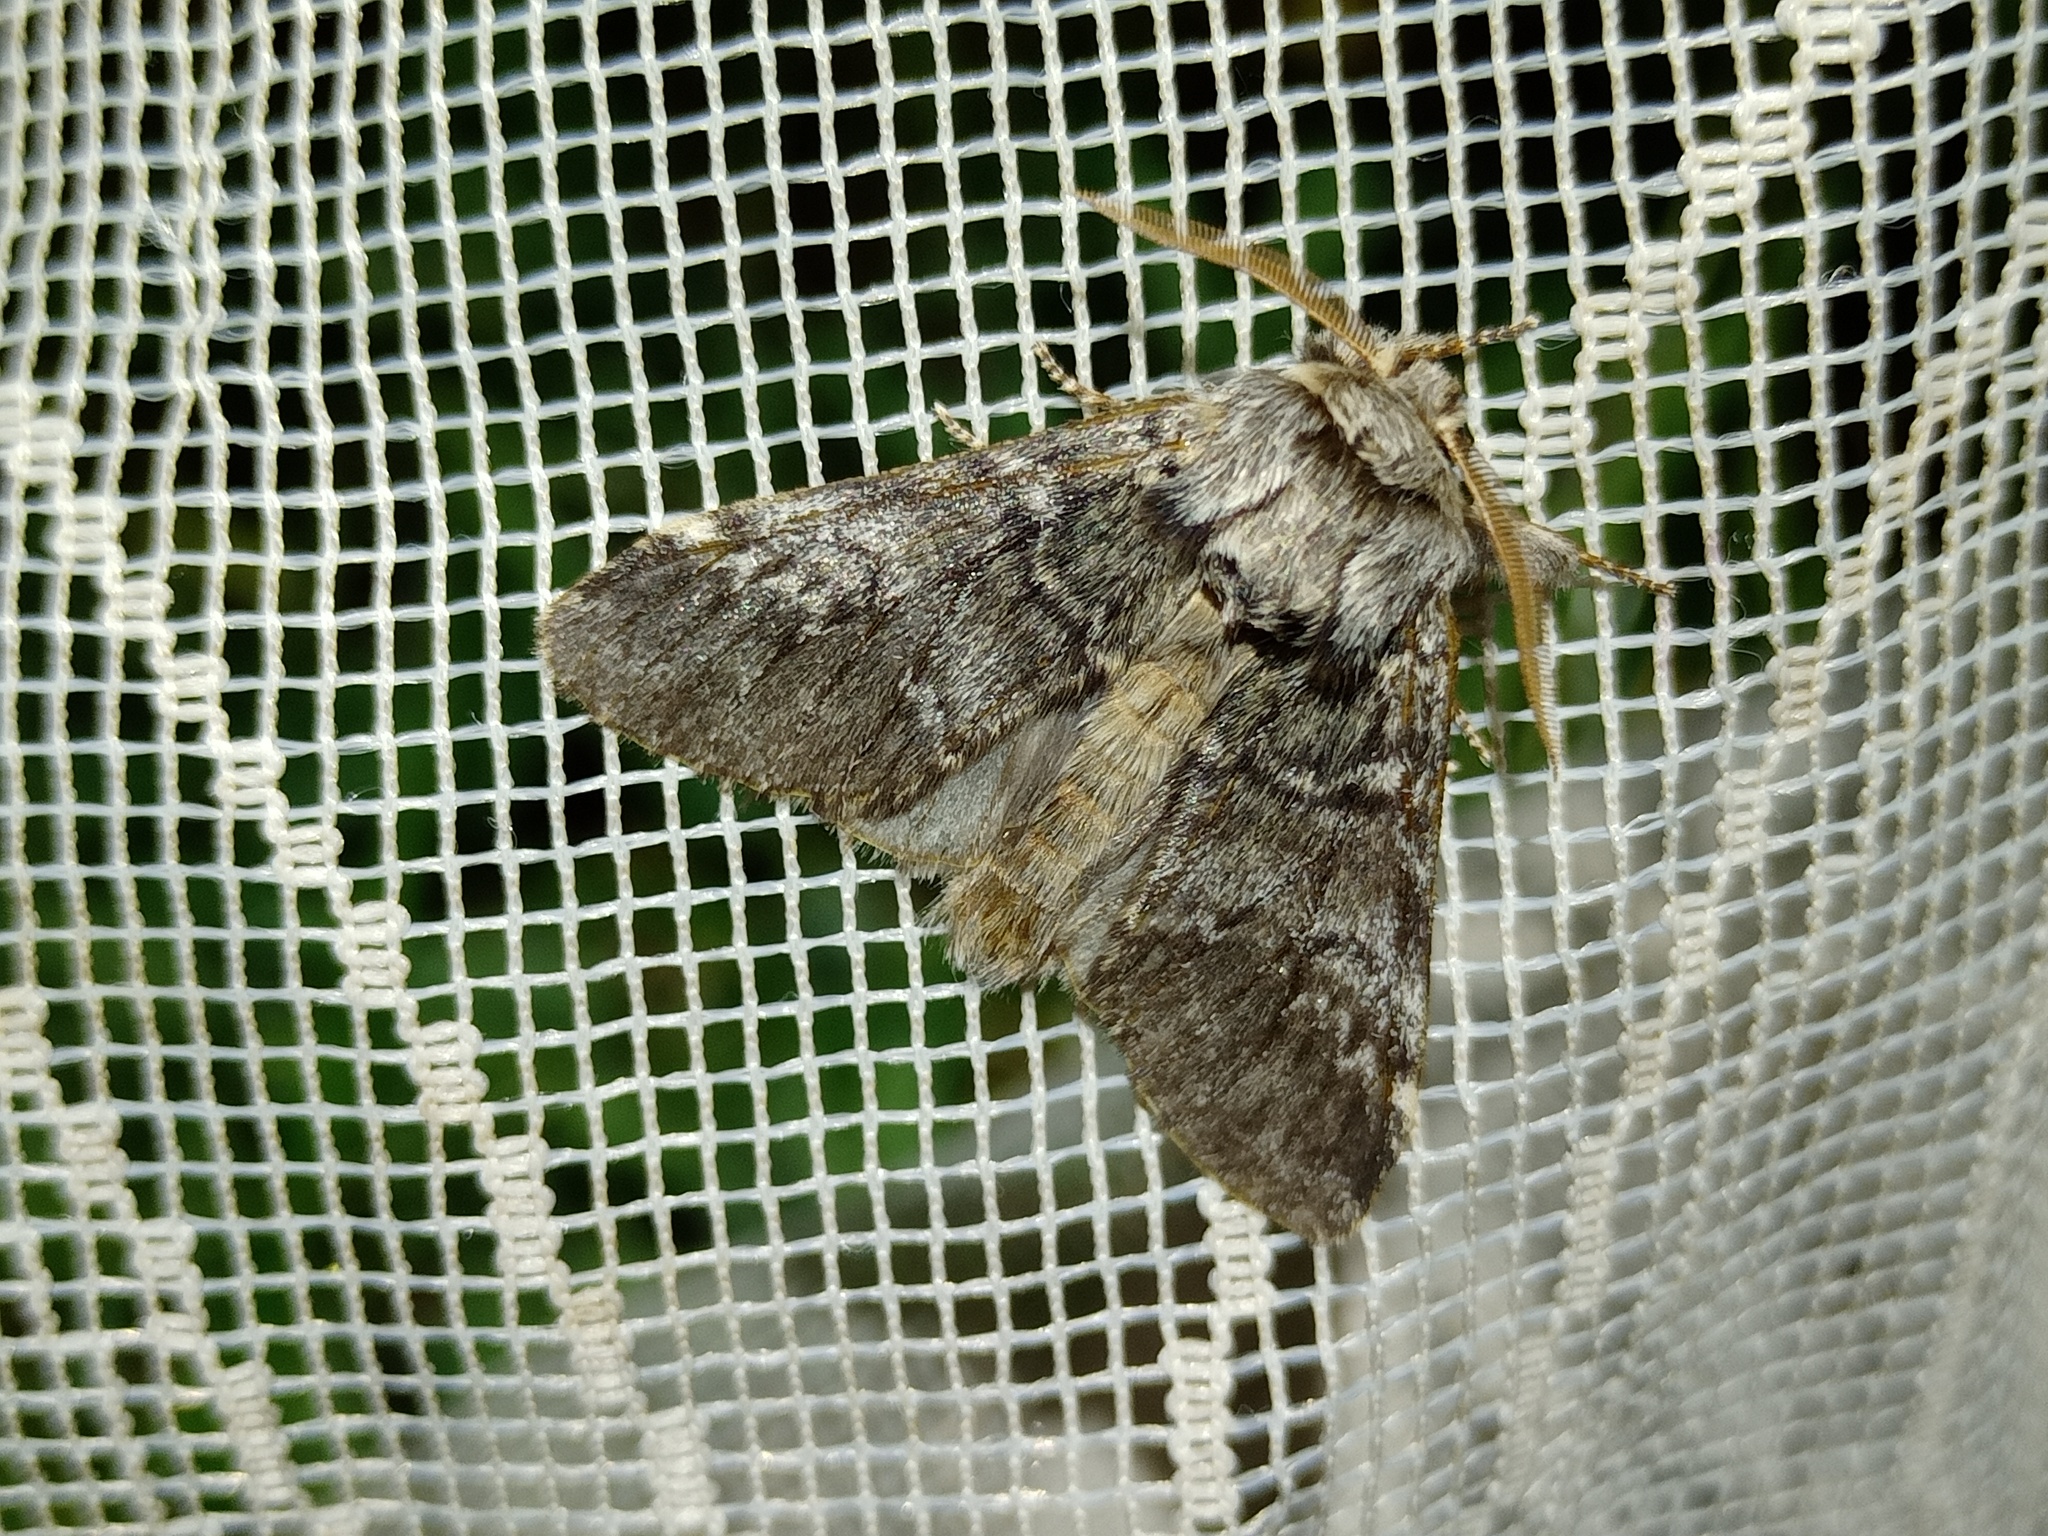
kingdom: Animalia
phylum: Arthropoda
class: Insecta
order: Lepidoptera
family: Notodontidae
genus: Drymonia
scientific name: Drymonia ruficornis
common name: Lunar marbled brown
